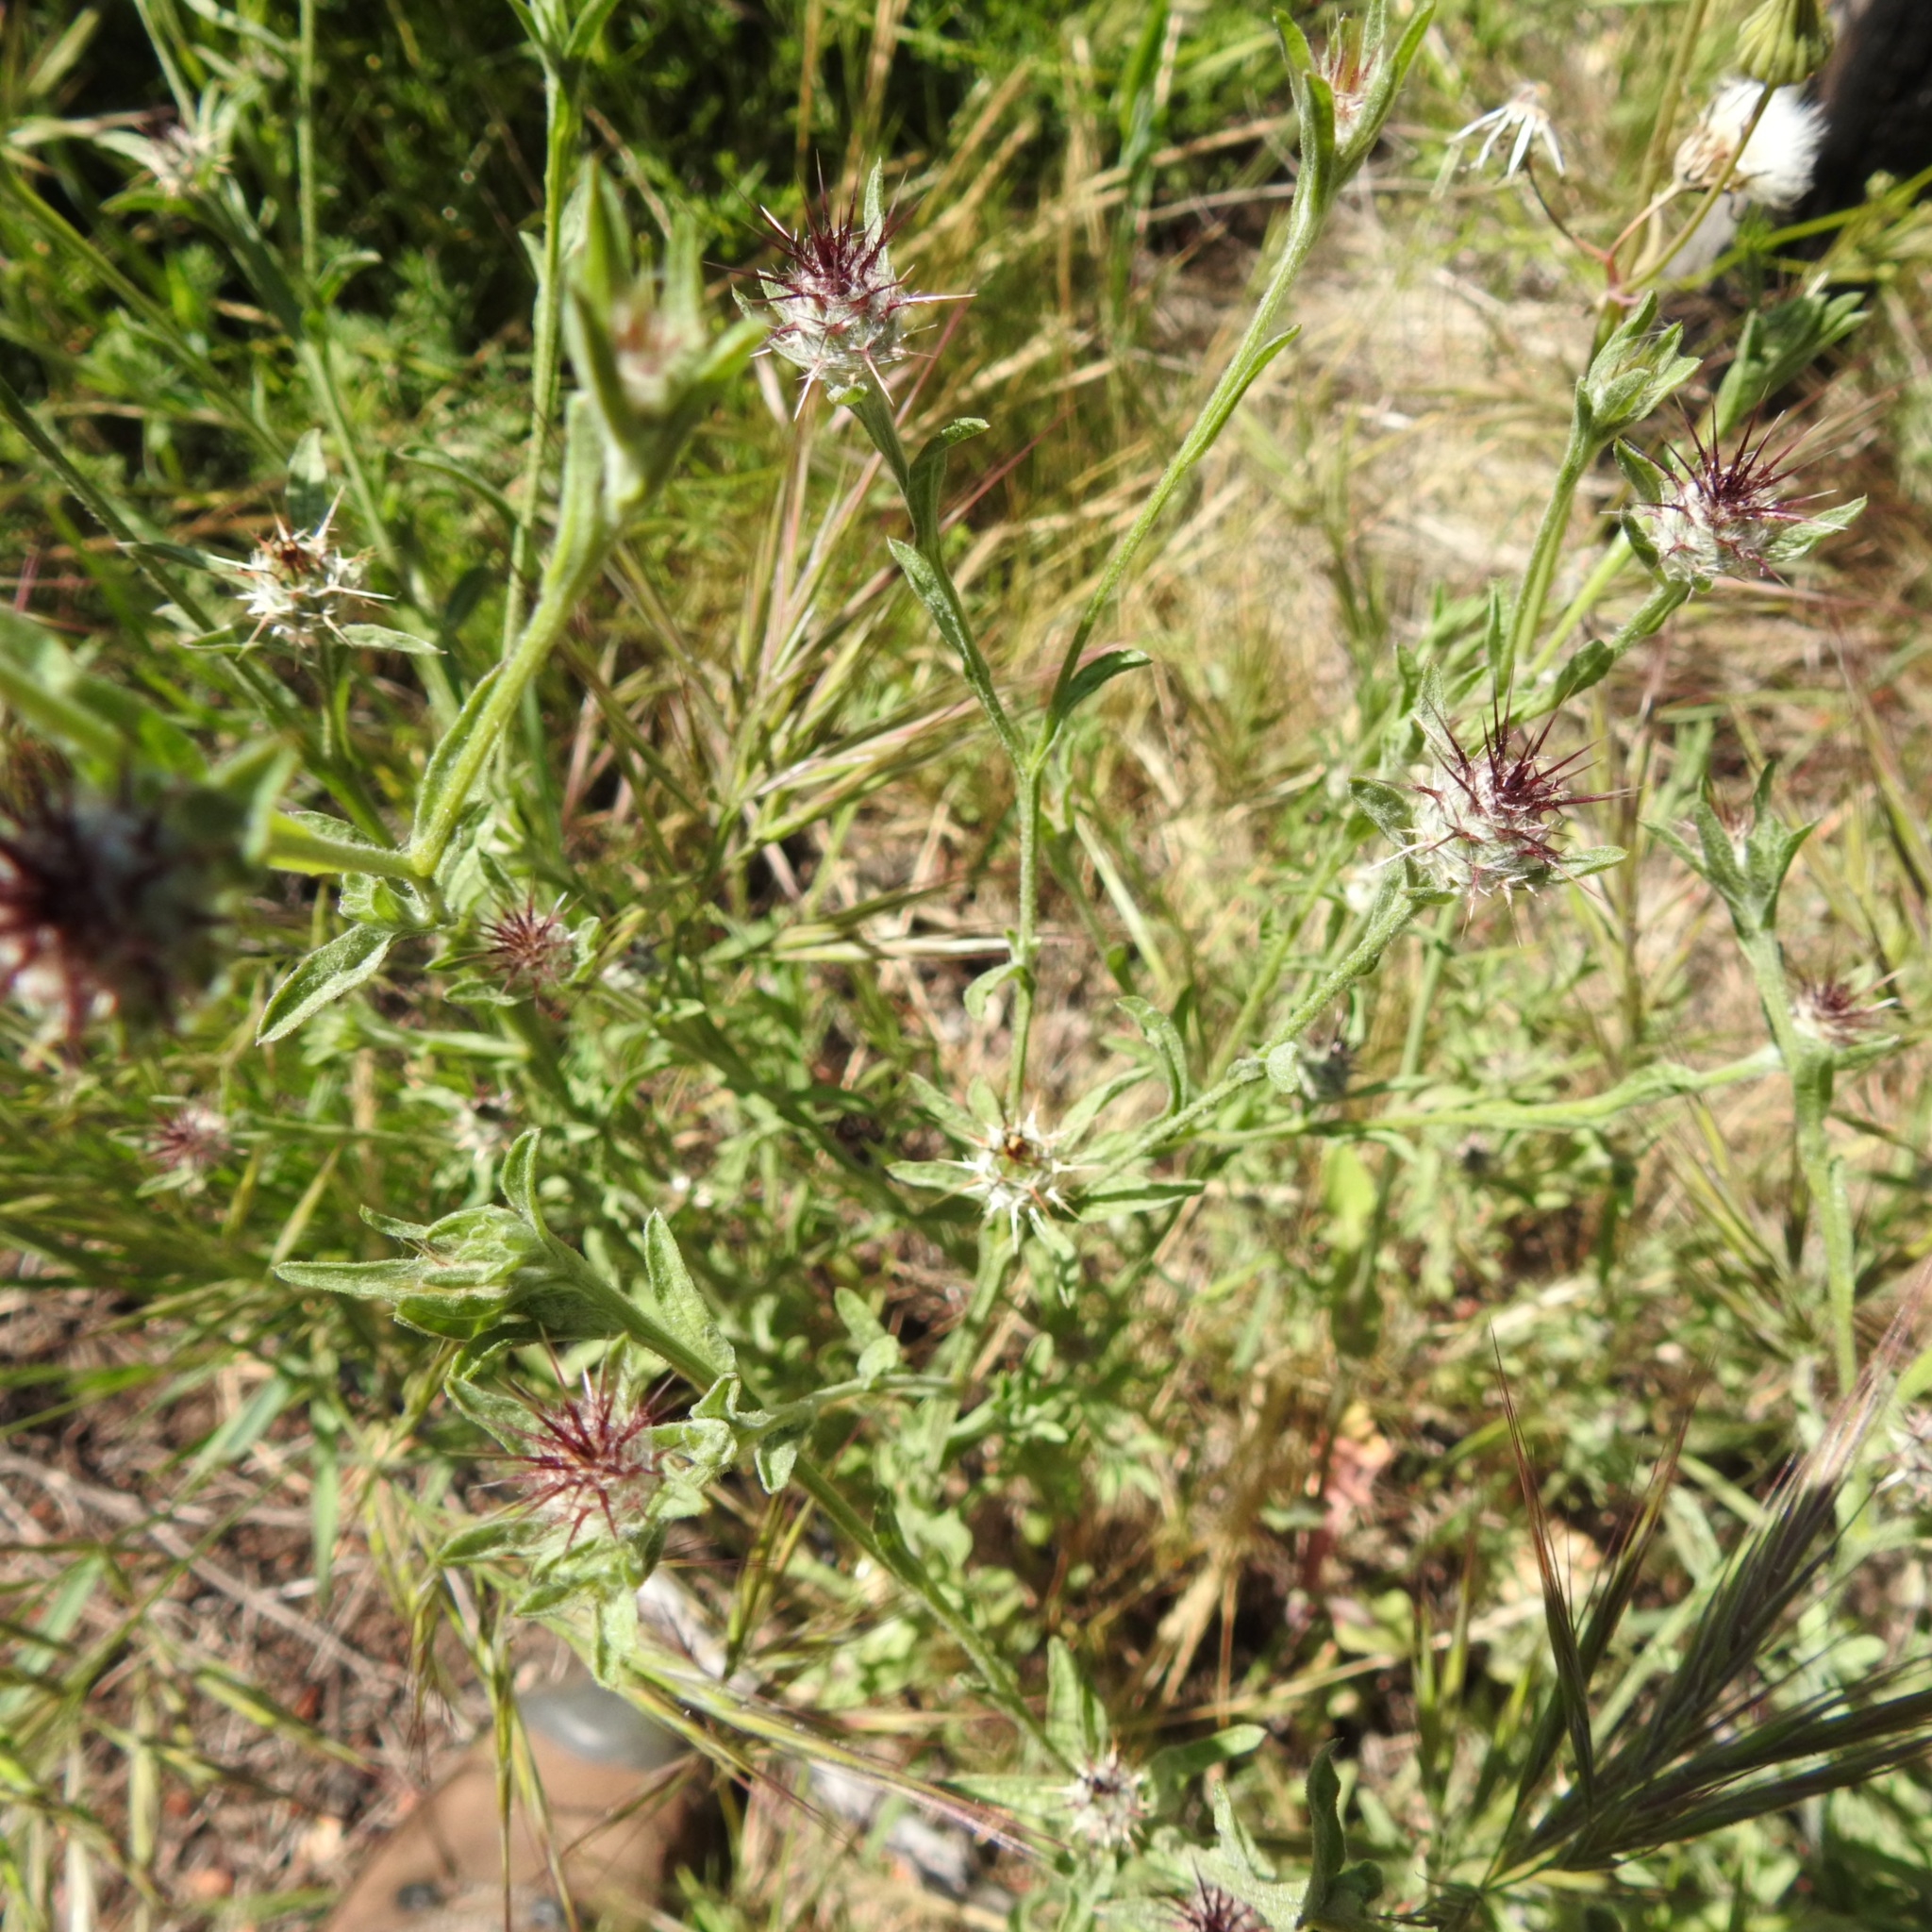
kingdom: Plantae
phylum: Tracheophyta
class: Magnoliopsida
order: Asterales
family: Asteraceae
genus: Centaurea
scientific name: Centaurea melitensis
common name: Maltese star-thistle
